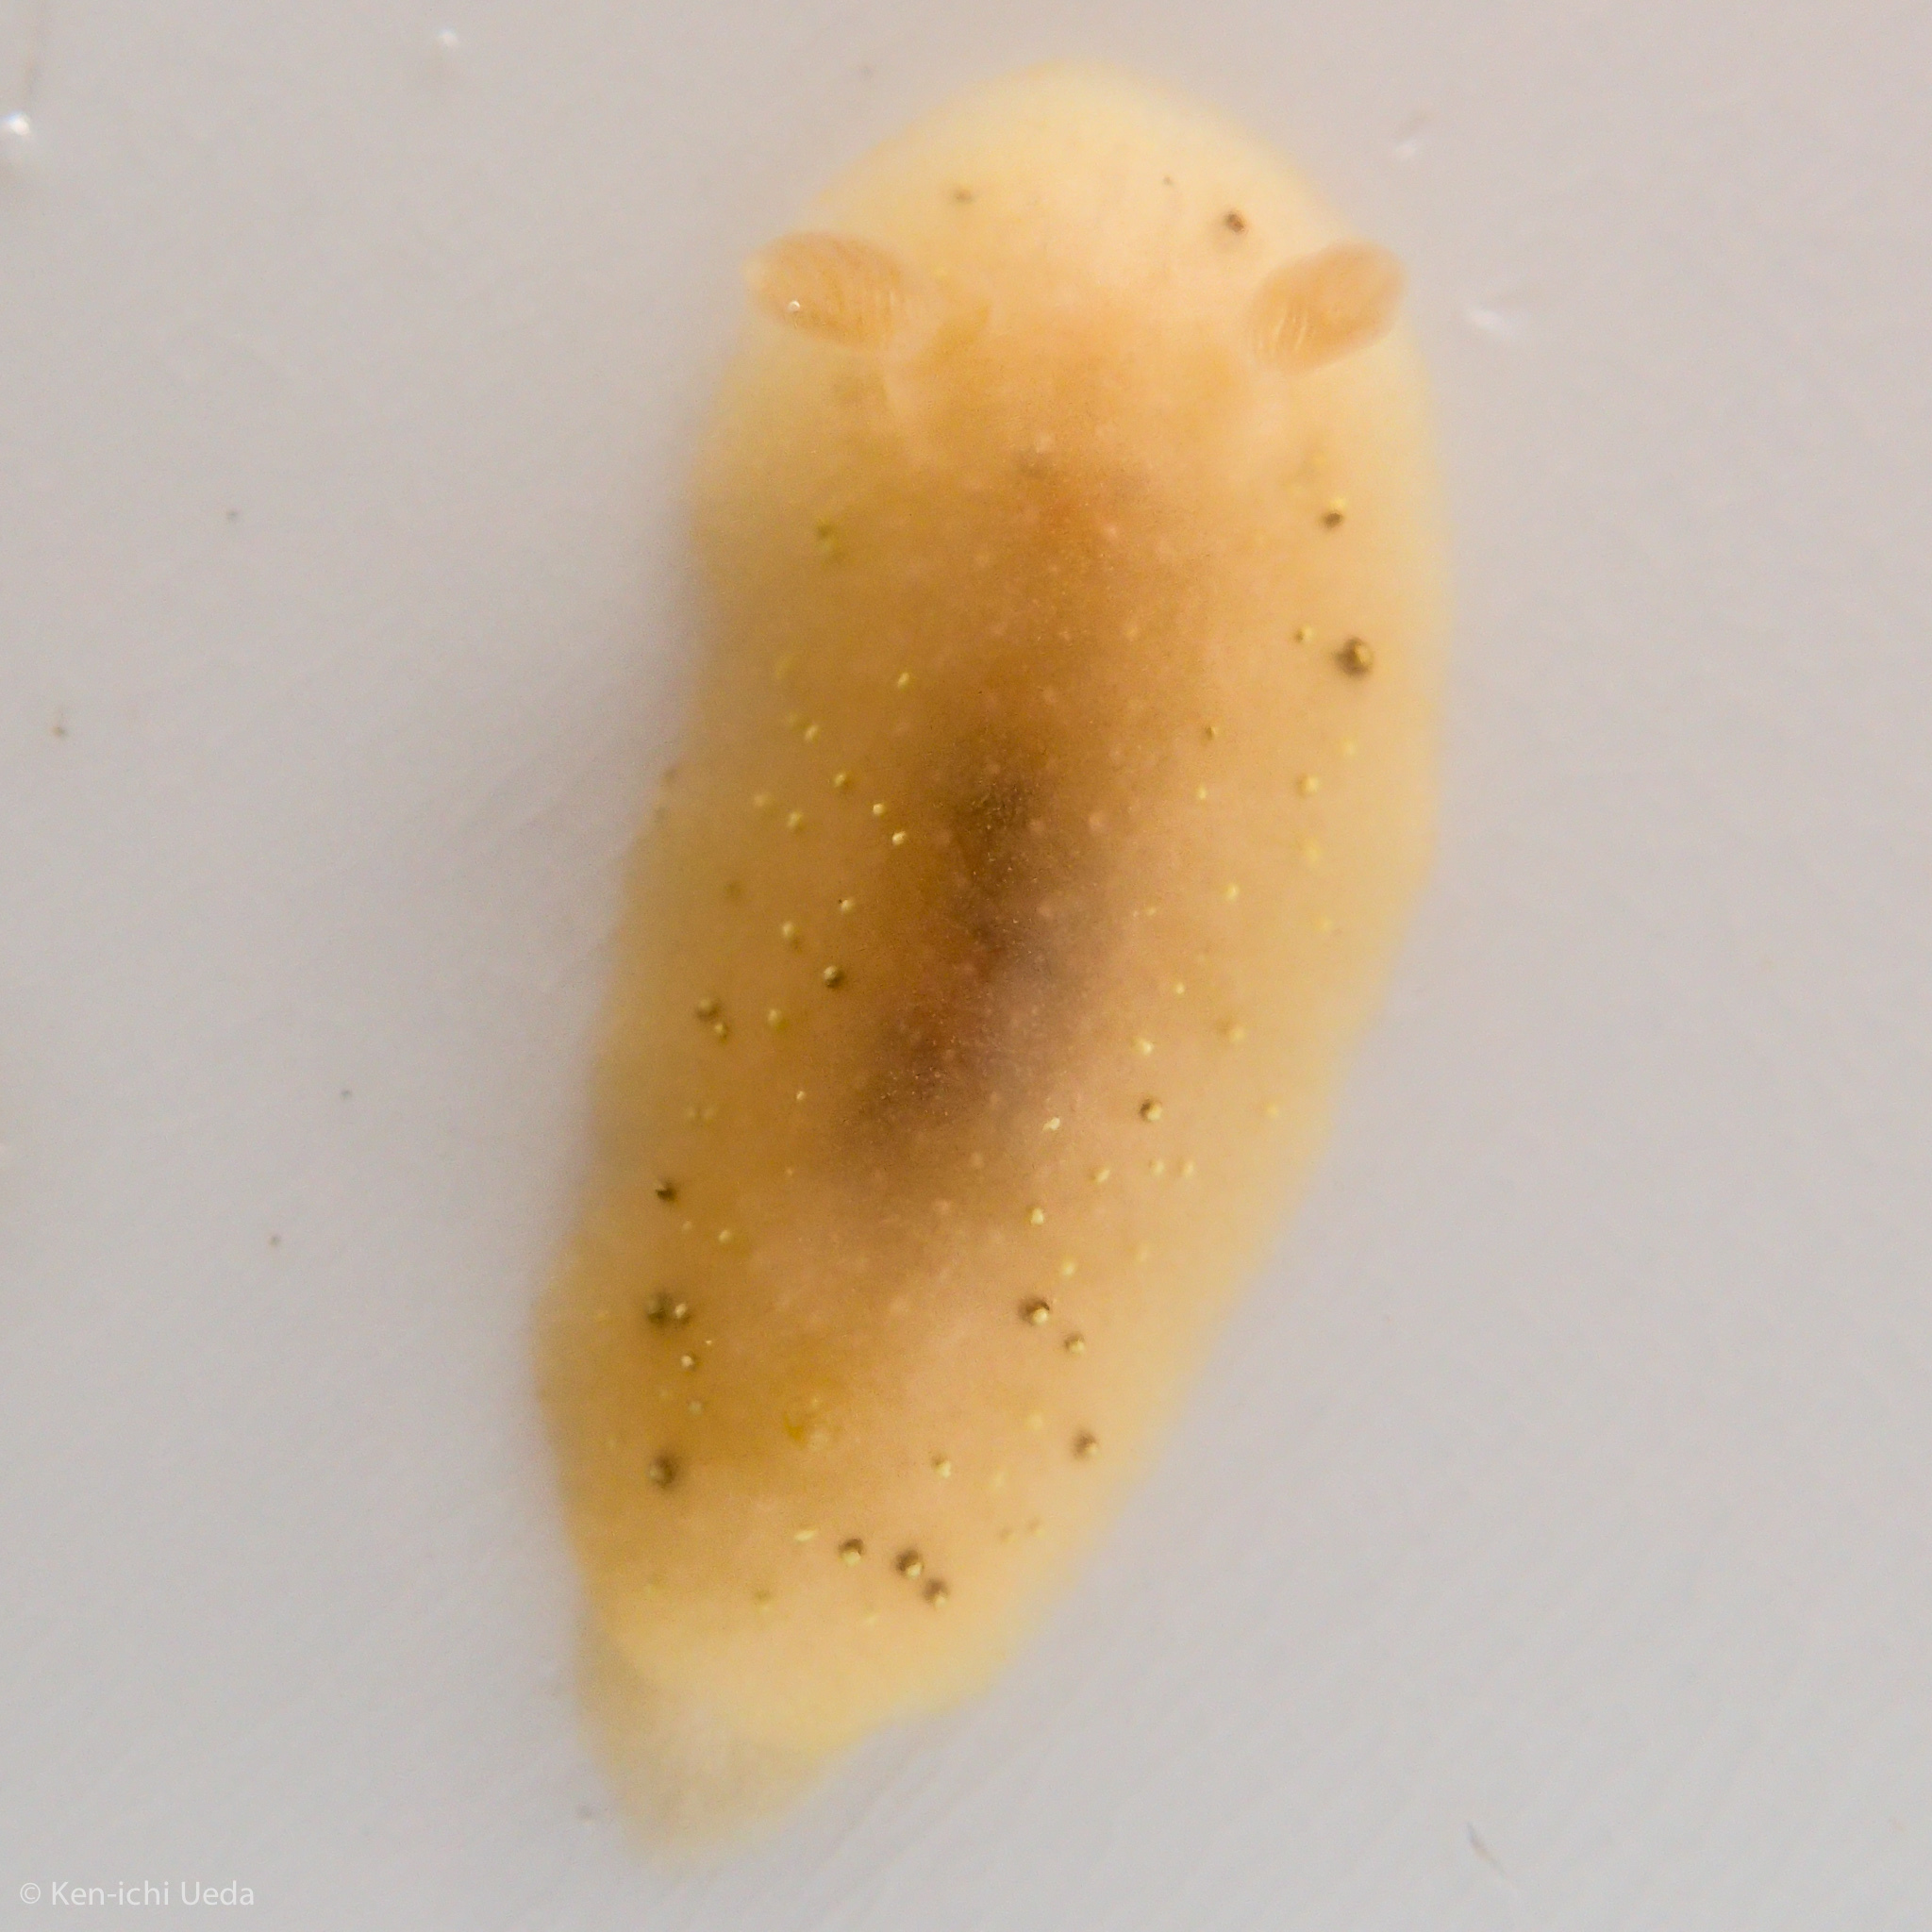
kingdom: Animalia
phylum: Mollusca
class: Gastropoda
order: Nudibranchia
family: Cadlinidae
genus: Cadlina
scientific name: Cadlina sparsa
